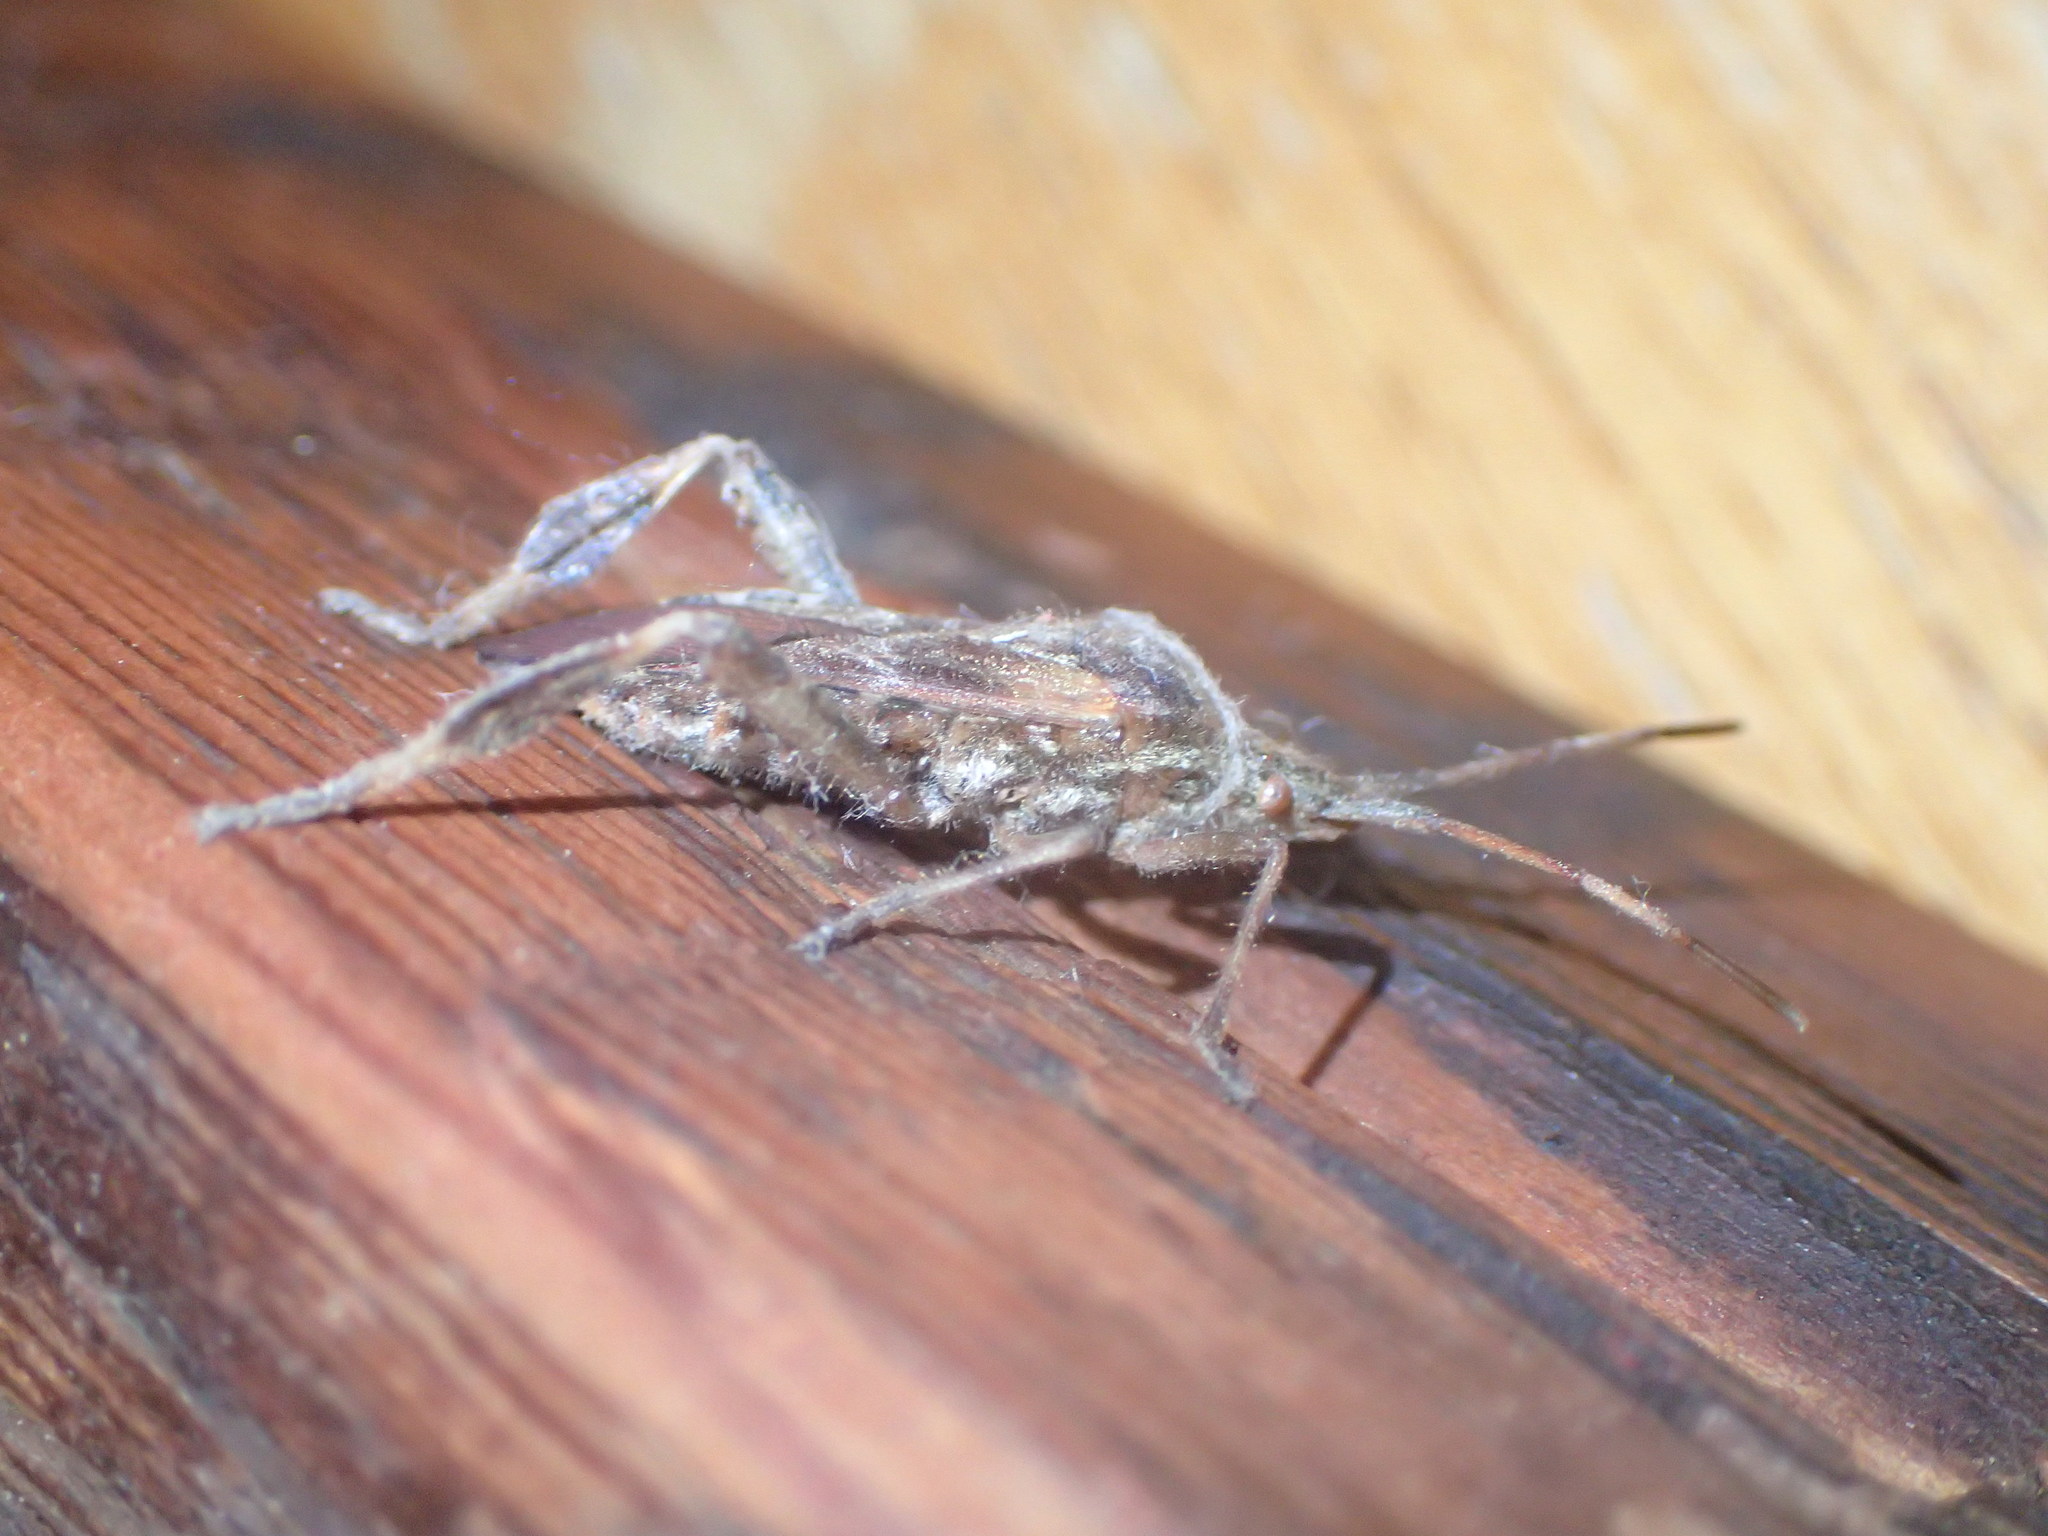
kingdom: Animalia
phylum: Arthropoda
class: Insecta
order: Hemiptera
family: Coreidae
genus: Leptoglossus
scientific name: Leptoglossus occidentalis
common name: Western conifer-seed bug
